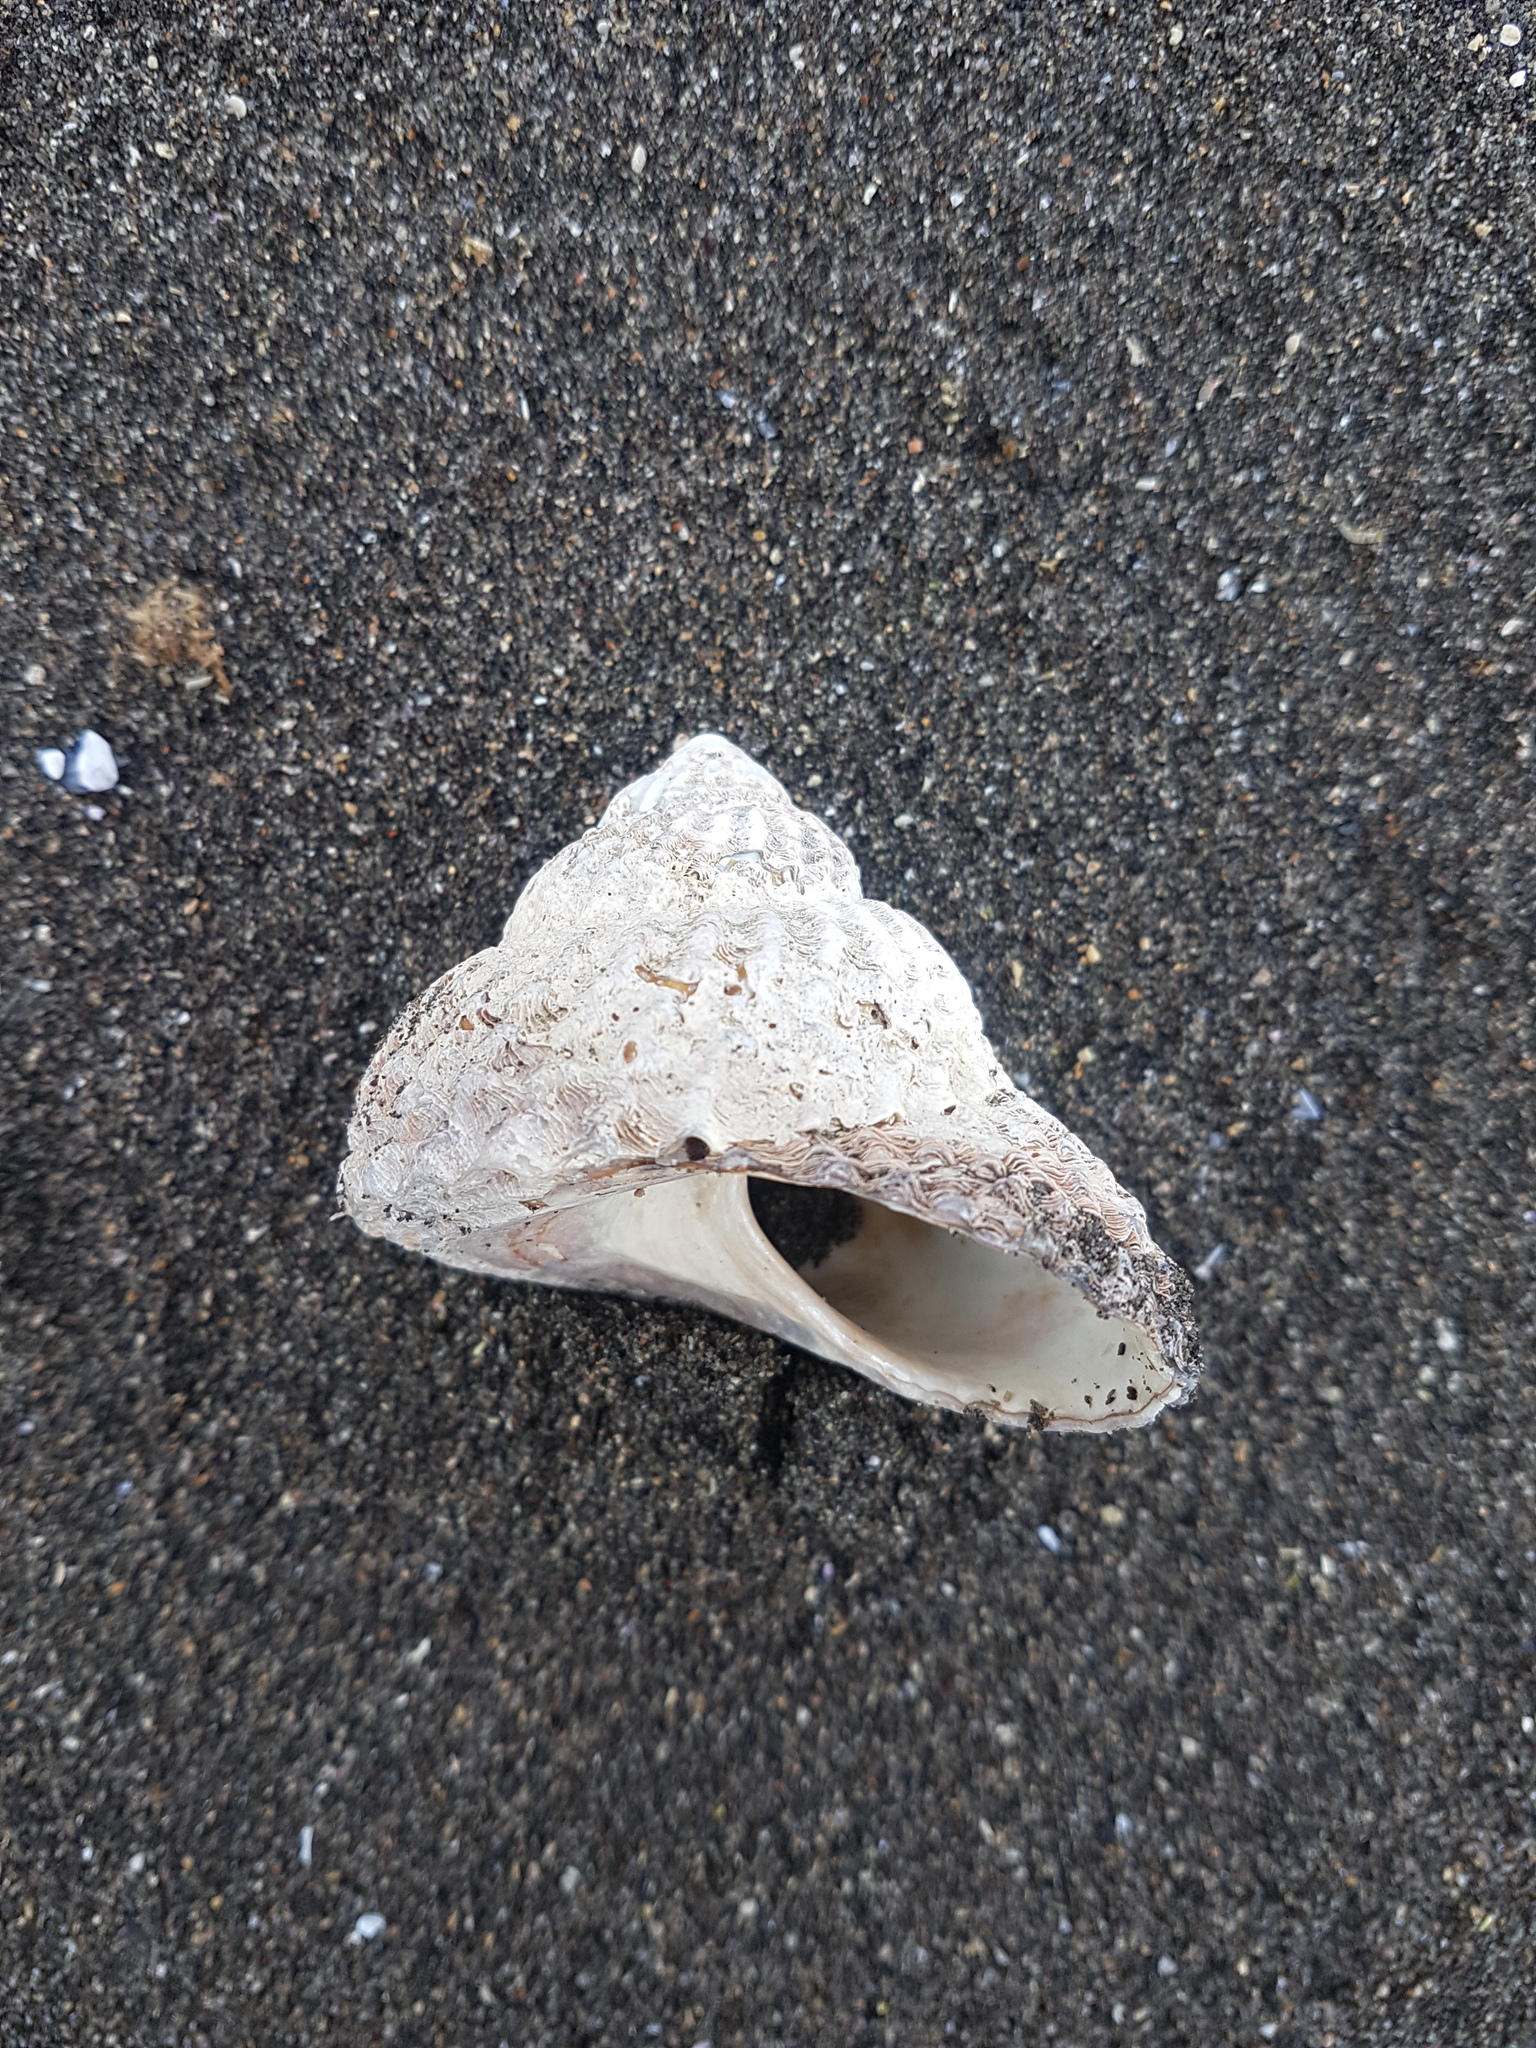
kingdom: Animalia
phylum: Mollusca
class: Gastropoda
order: Trochida
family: Turbinidae
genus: Cookia
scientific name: Cookia sulcata
